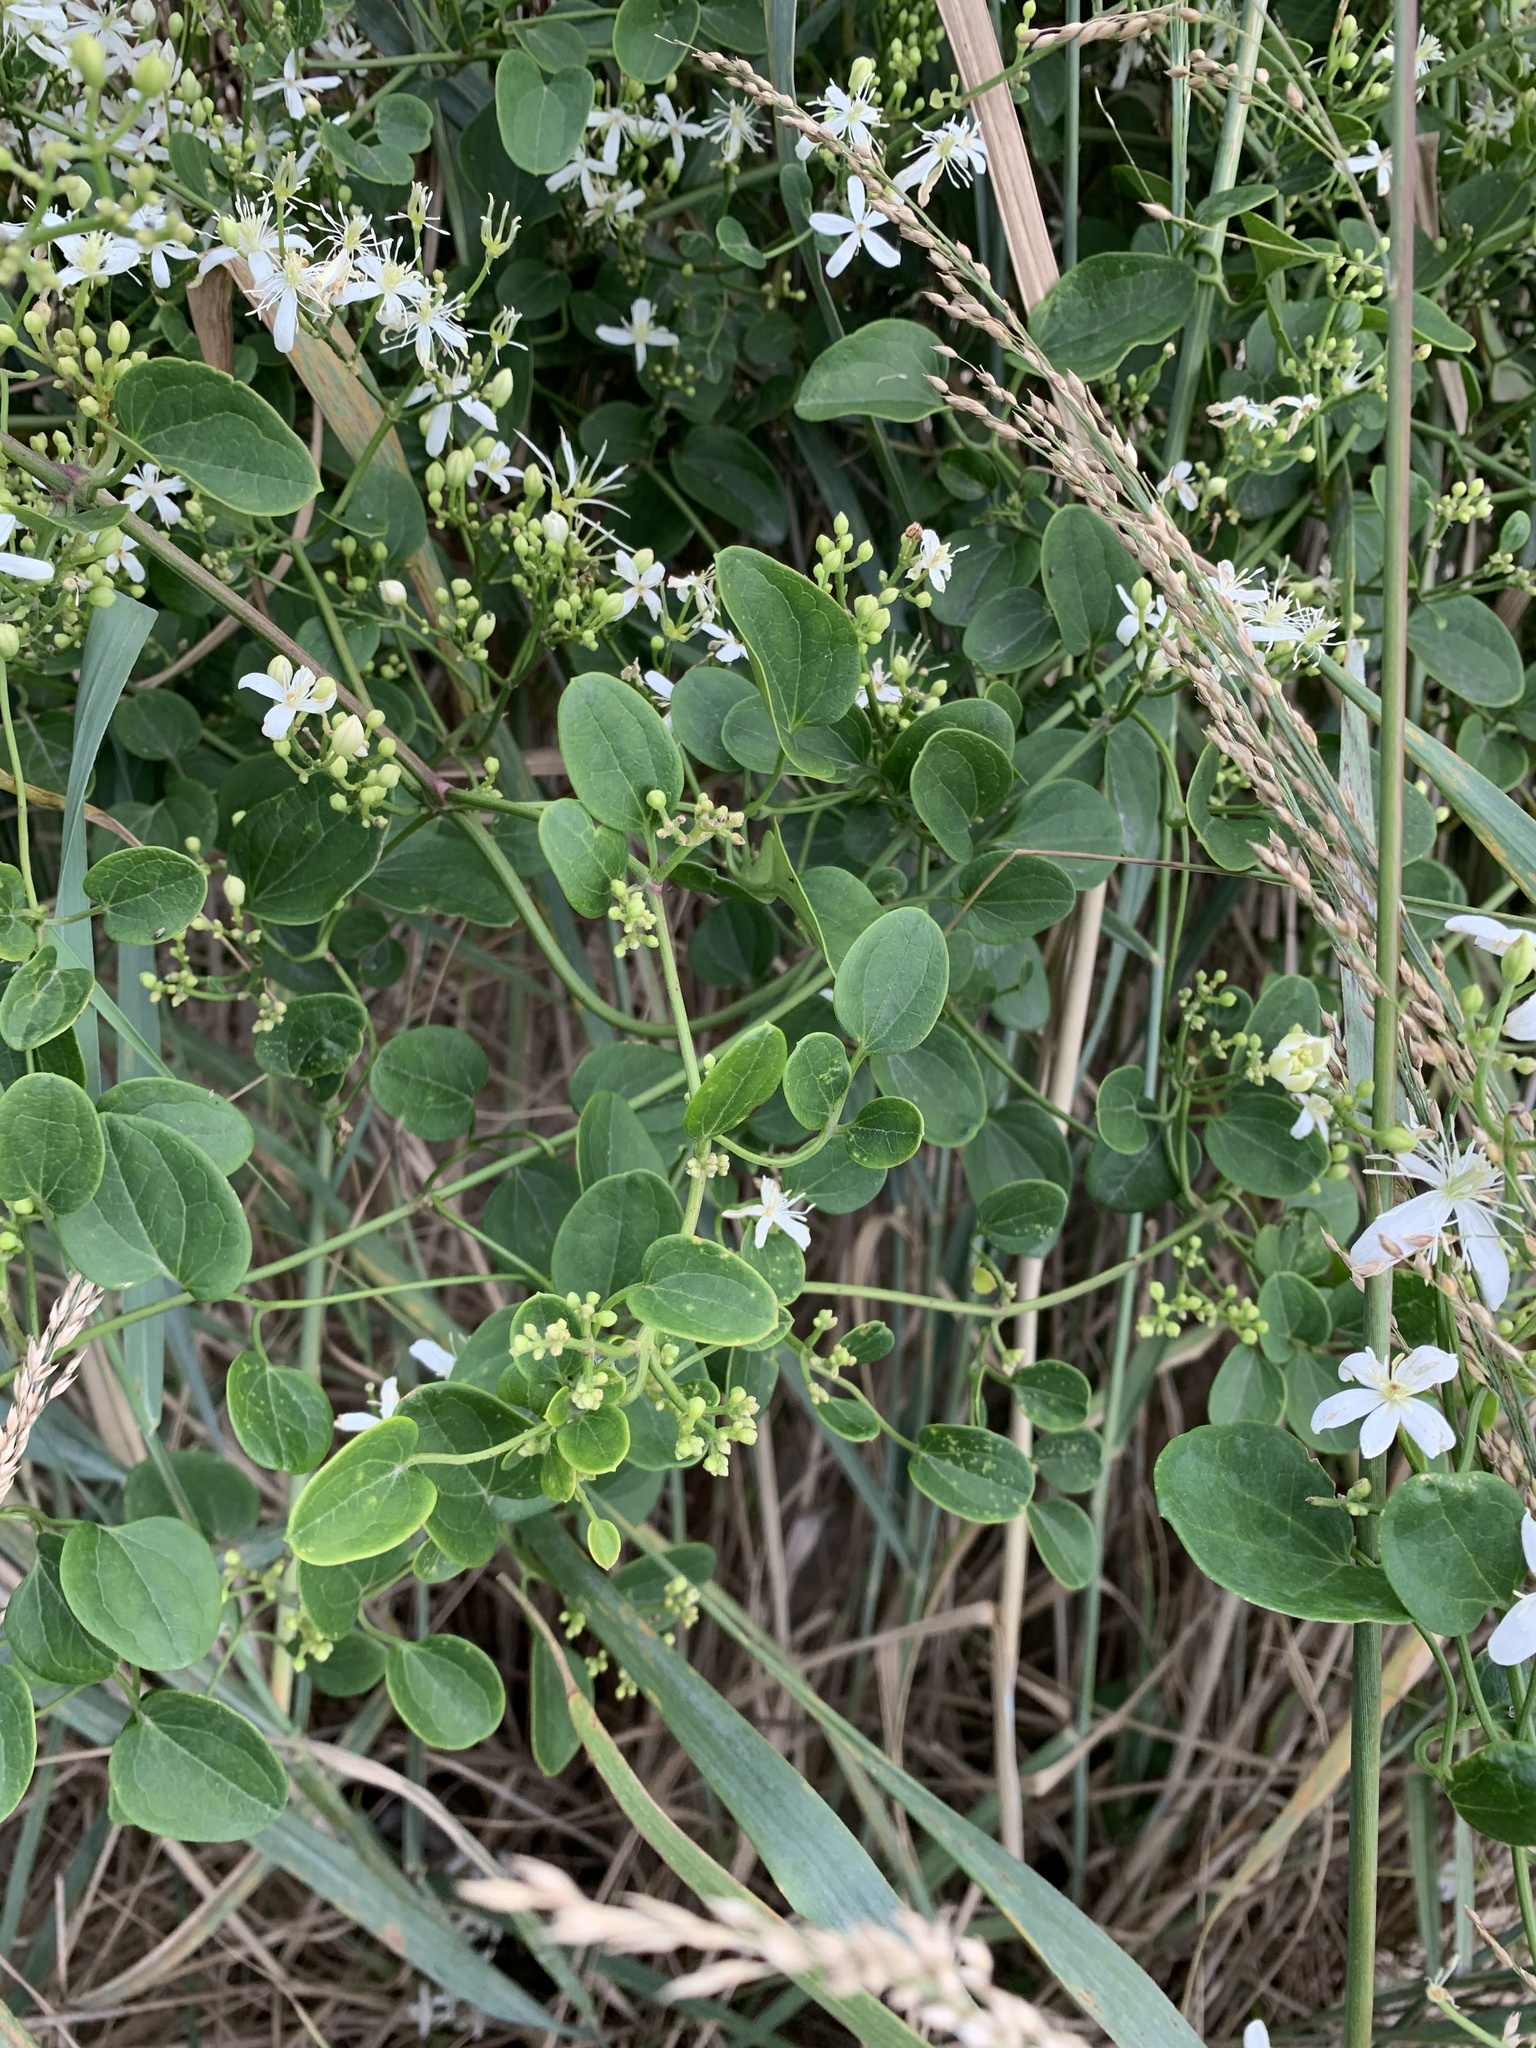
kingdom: Plantae
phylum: Tracheophyta
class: Magnoliopsida
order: Ranunculales
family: Ranunculaceae
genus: Clematis
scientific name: Clematis terniflora
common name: Sweet autumn clematis
